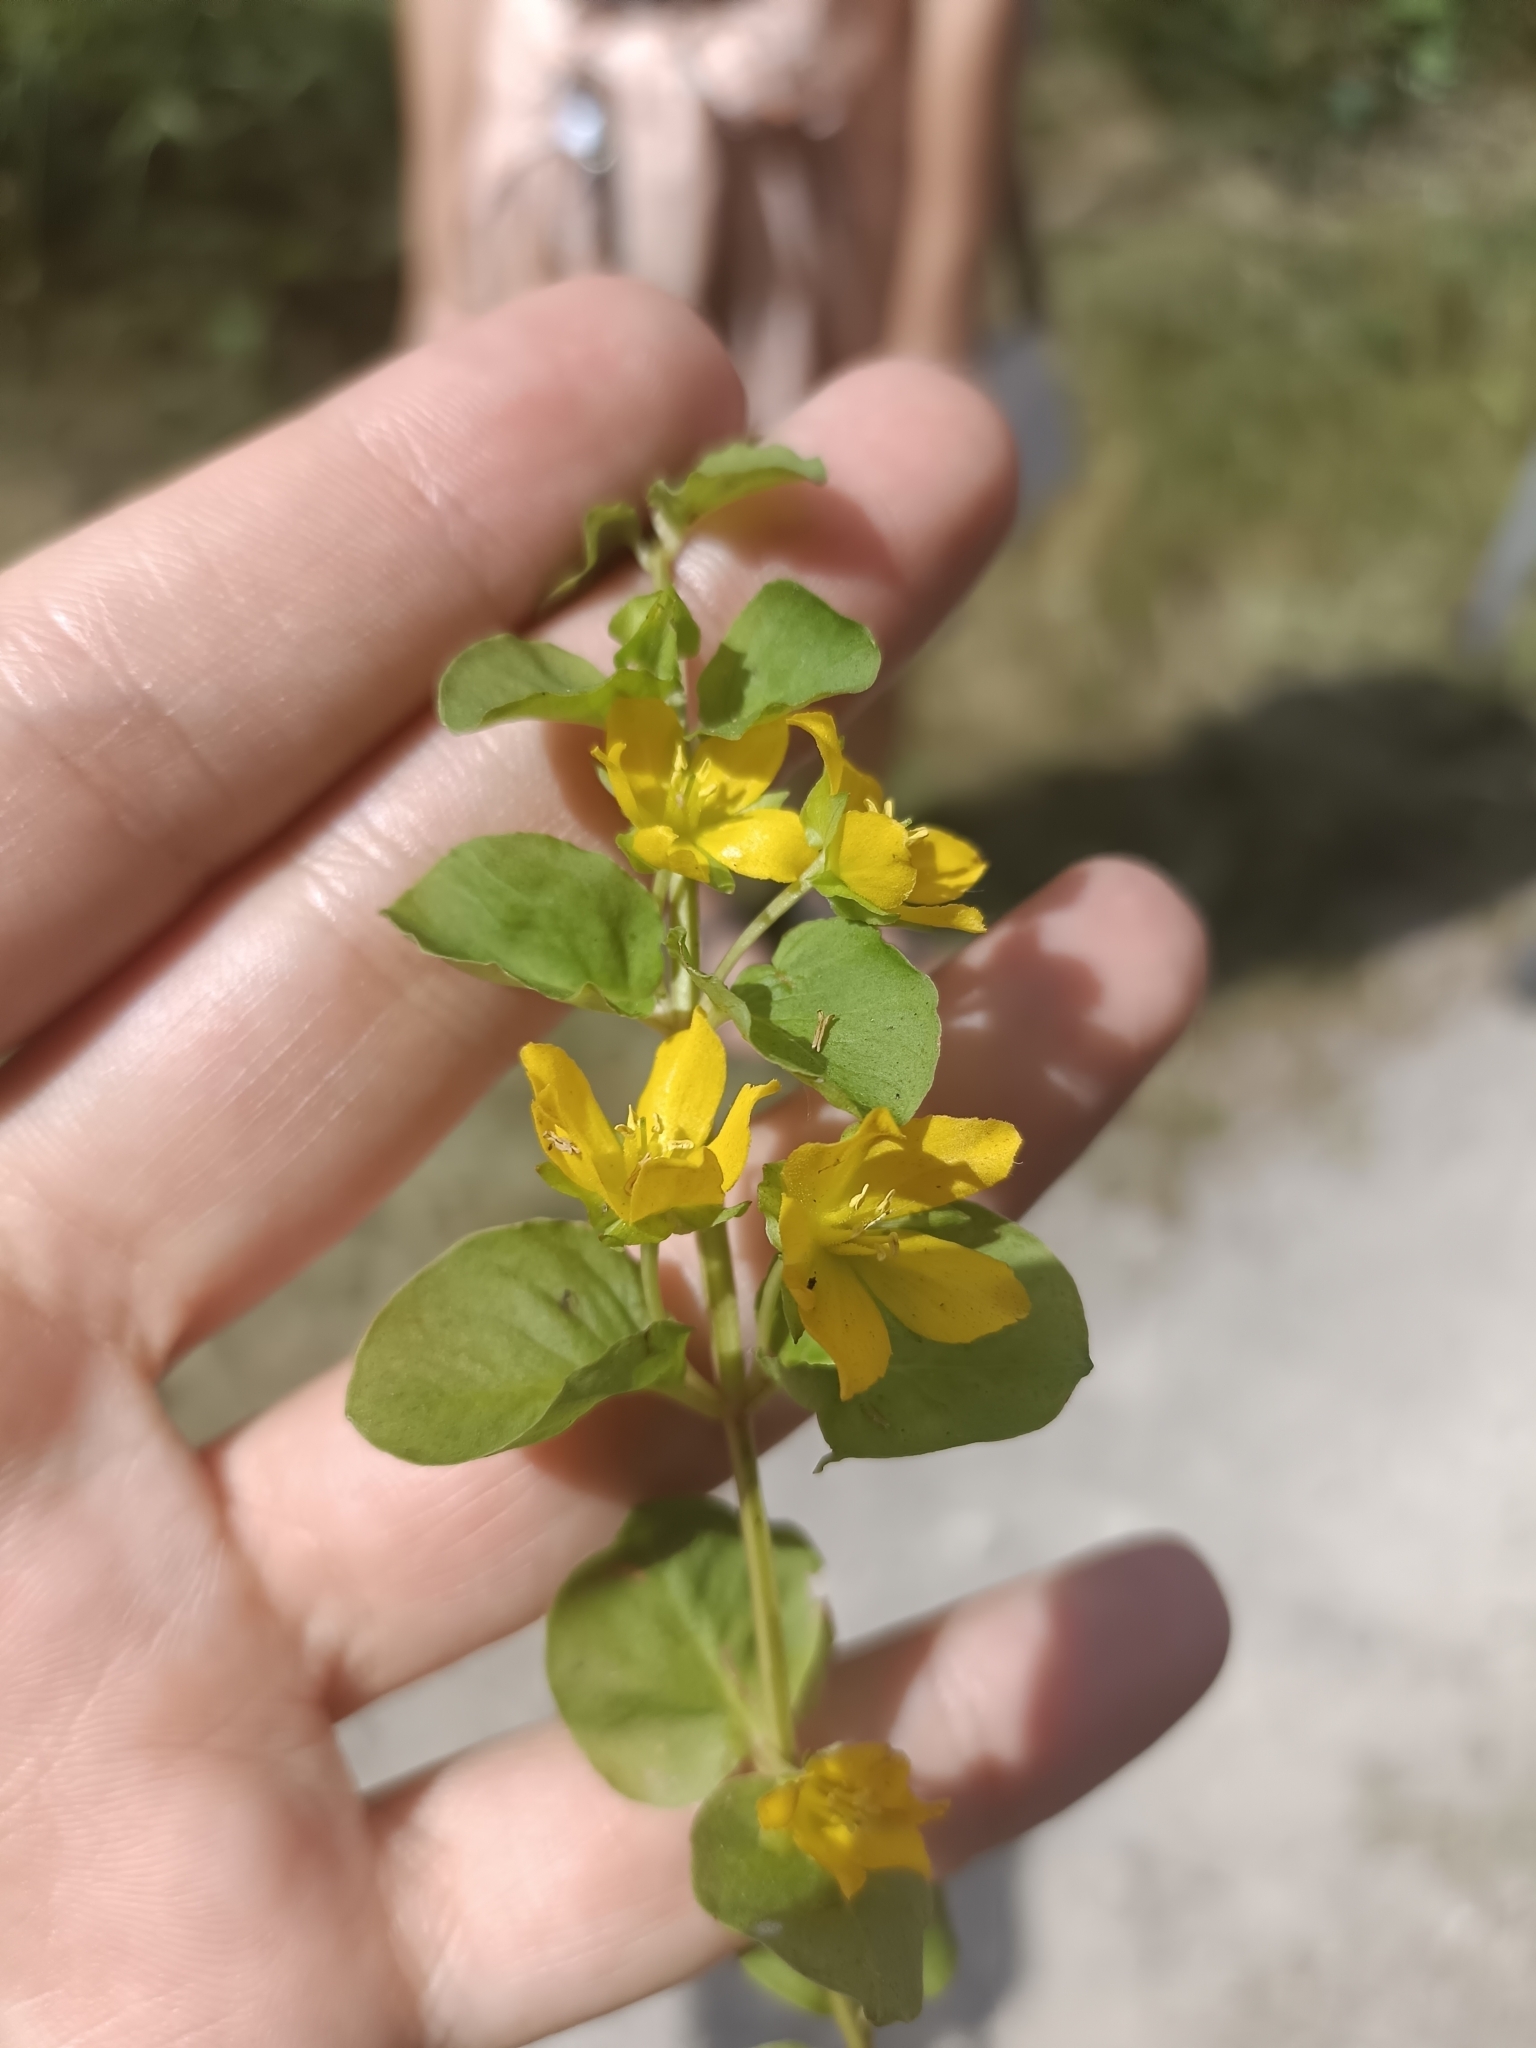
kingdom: Plantae
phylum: Tracheophyta
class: Magnoliopsida
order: Ericales
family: Primulaceae
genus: Lysimachia
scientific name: Lysimachia nummularia
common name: Moneywort
